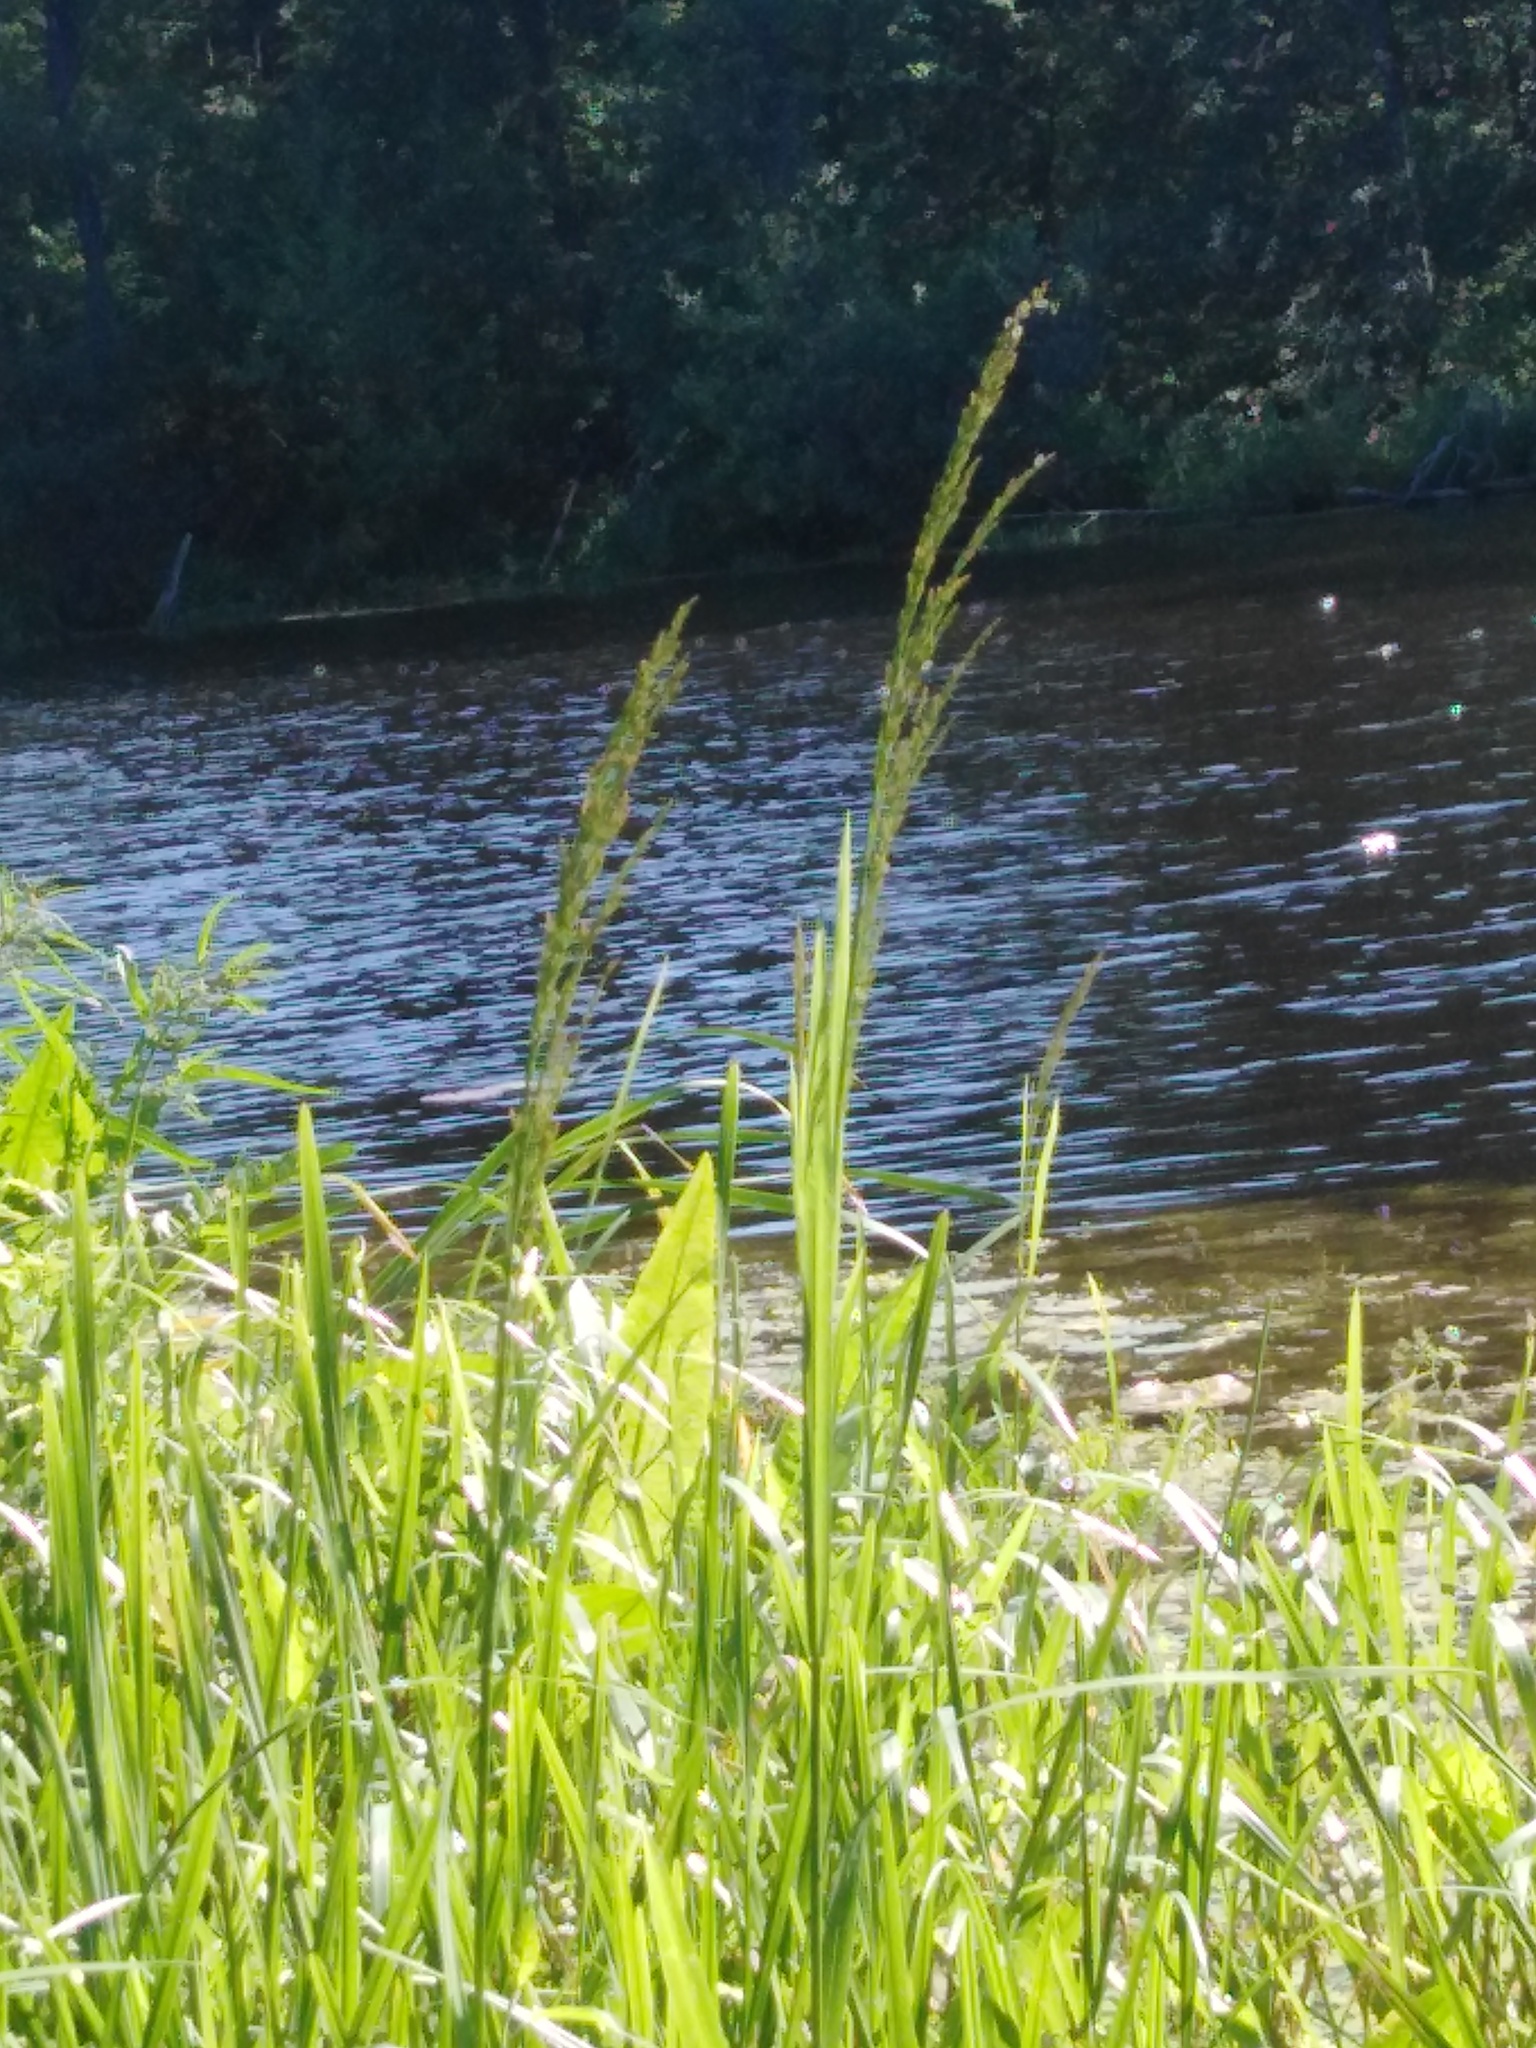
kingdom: Plantae
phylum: Tracheophyta
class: Liliopsida
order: Poales
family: Poaceae
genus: Glyceria
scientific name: Glyceria maxima
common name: Reed mannagrass
